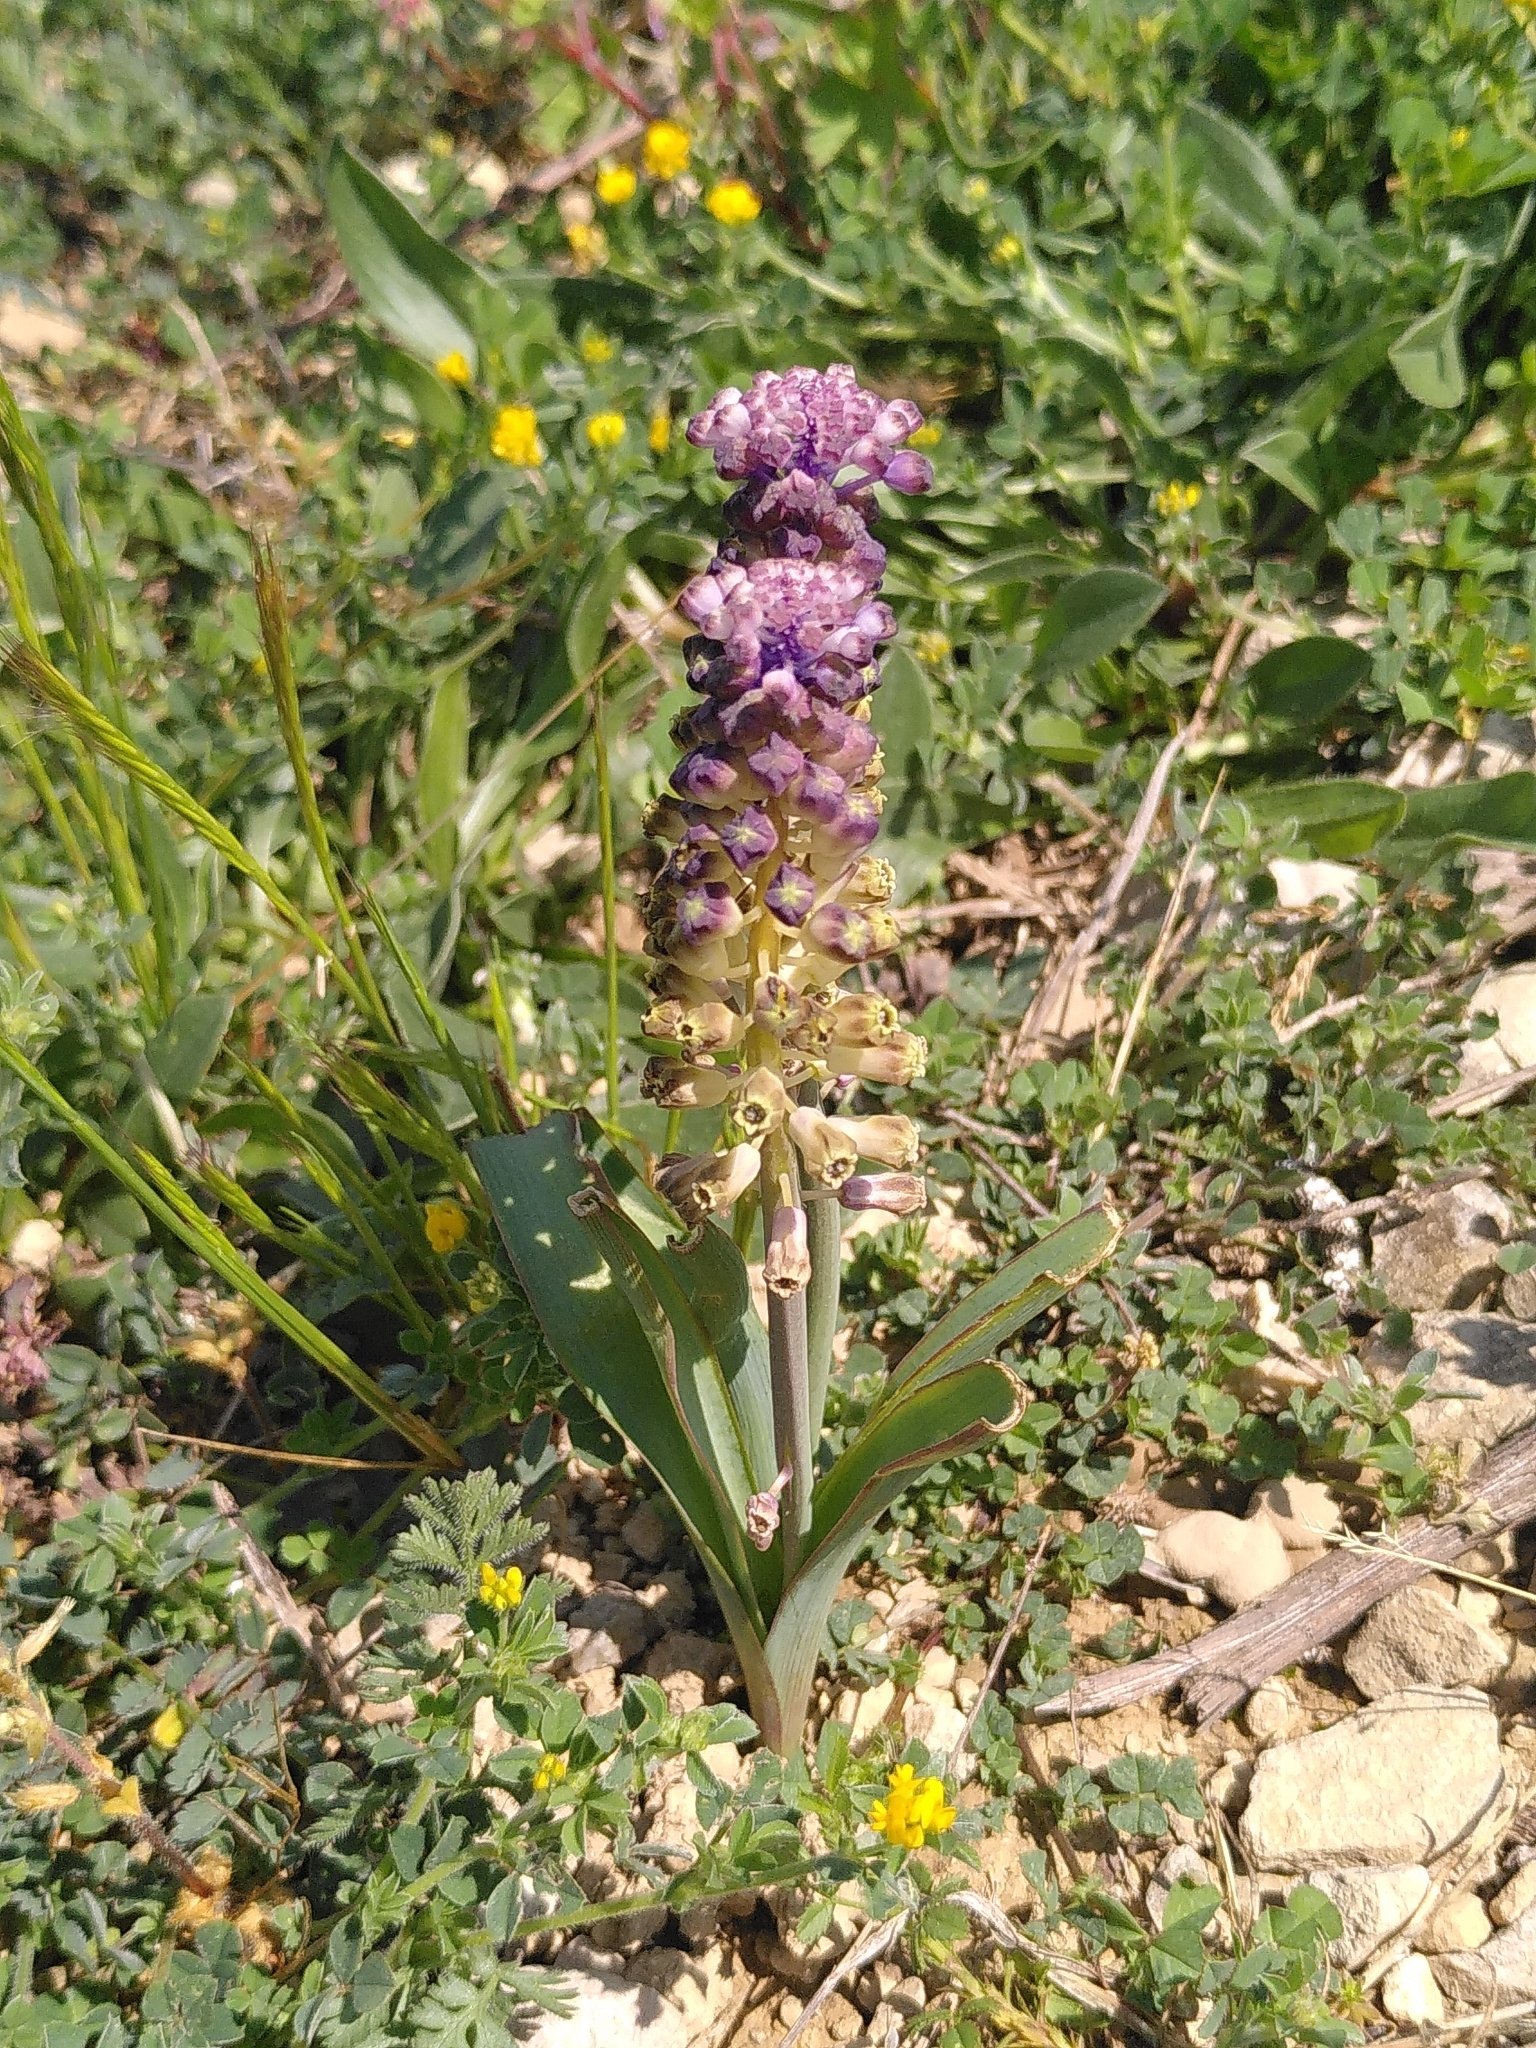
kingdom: Plantae
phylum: Tracheophyta
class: Liliopsida
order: Asparagales
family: Asparagaceae
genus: Muscari
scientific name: Muscari comosum
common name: Tassel hyacinth
